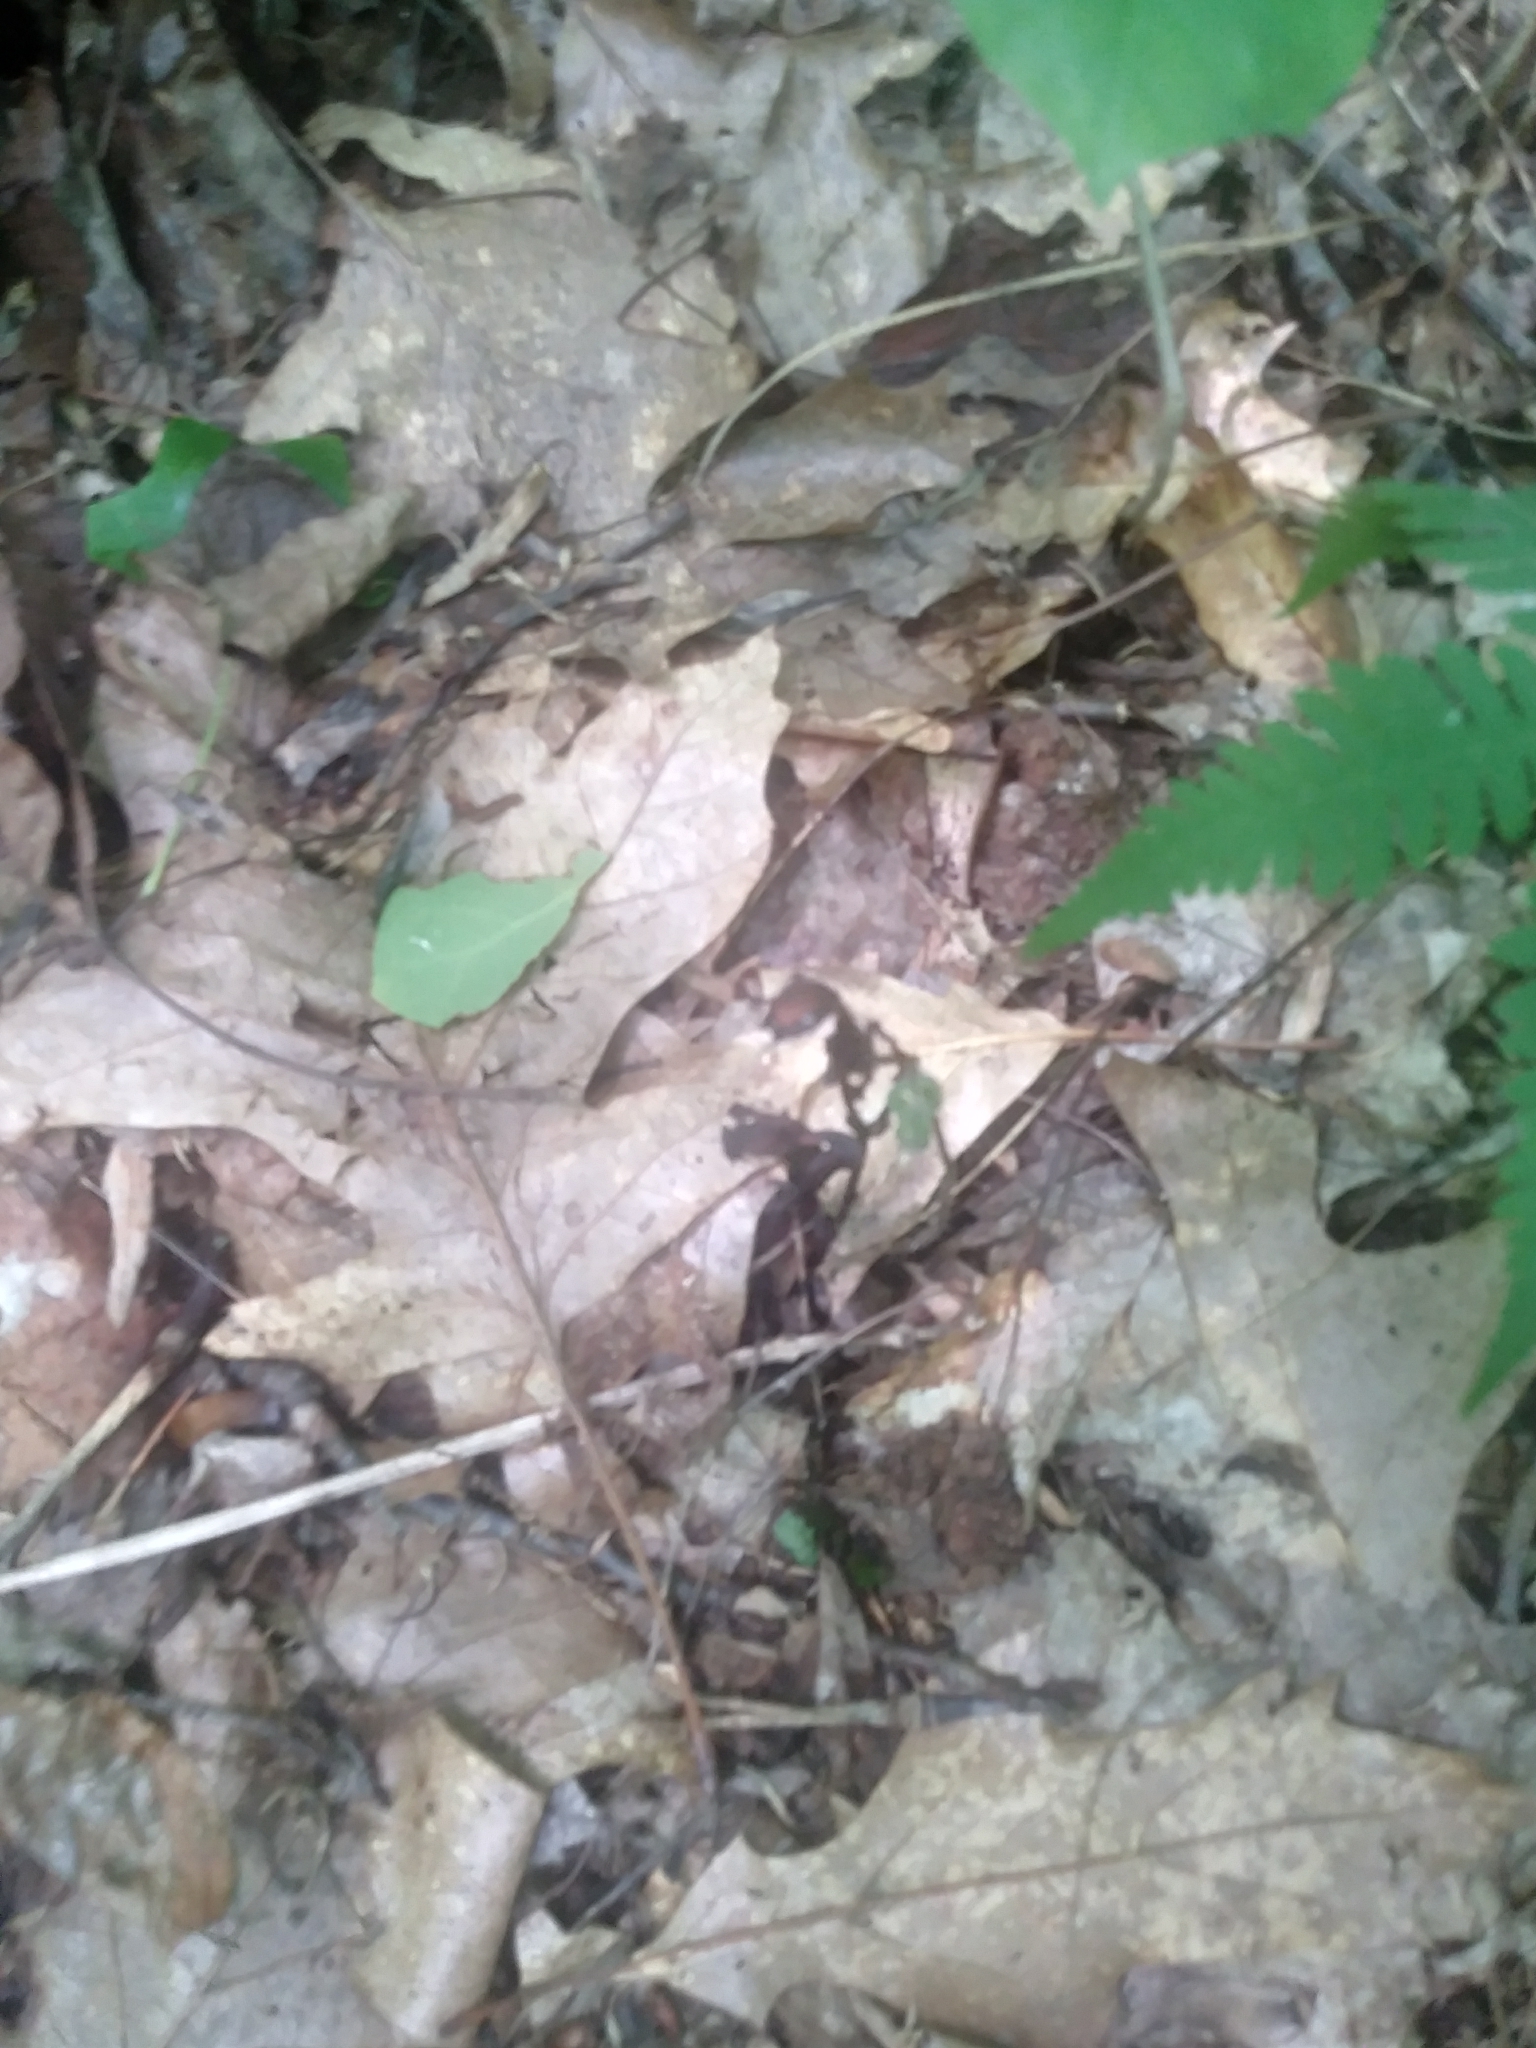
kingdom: Plantae
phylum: Tracheophyta
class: Magnoliopsida
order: Ericales
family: Ericaceae
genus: Monotropa
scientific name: Monotropa uniflora
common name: Convulsion root
